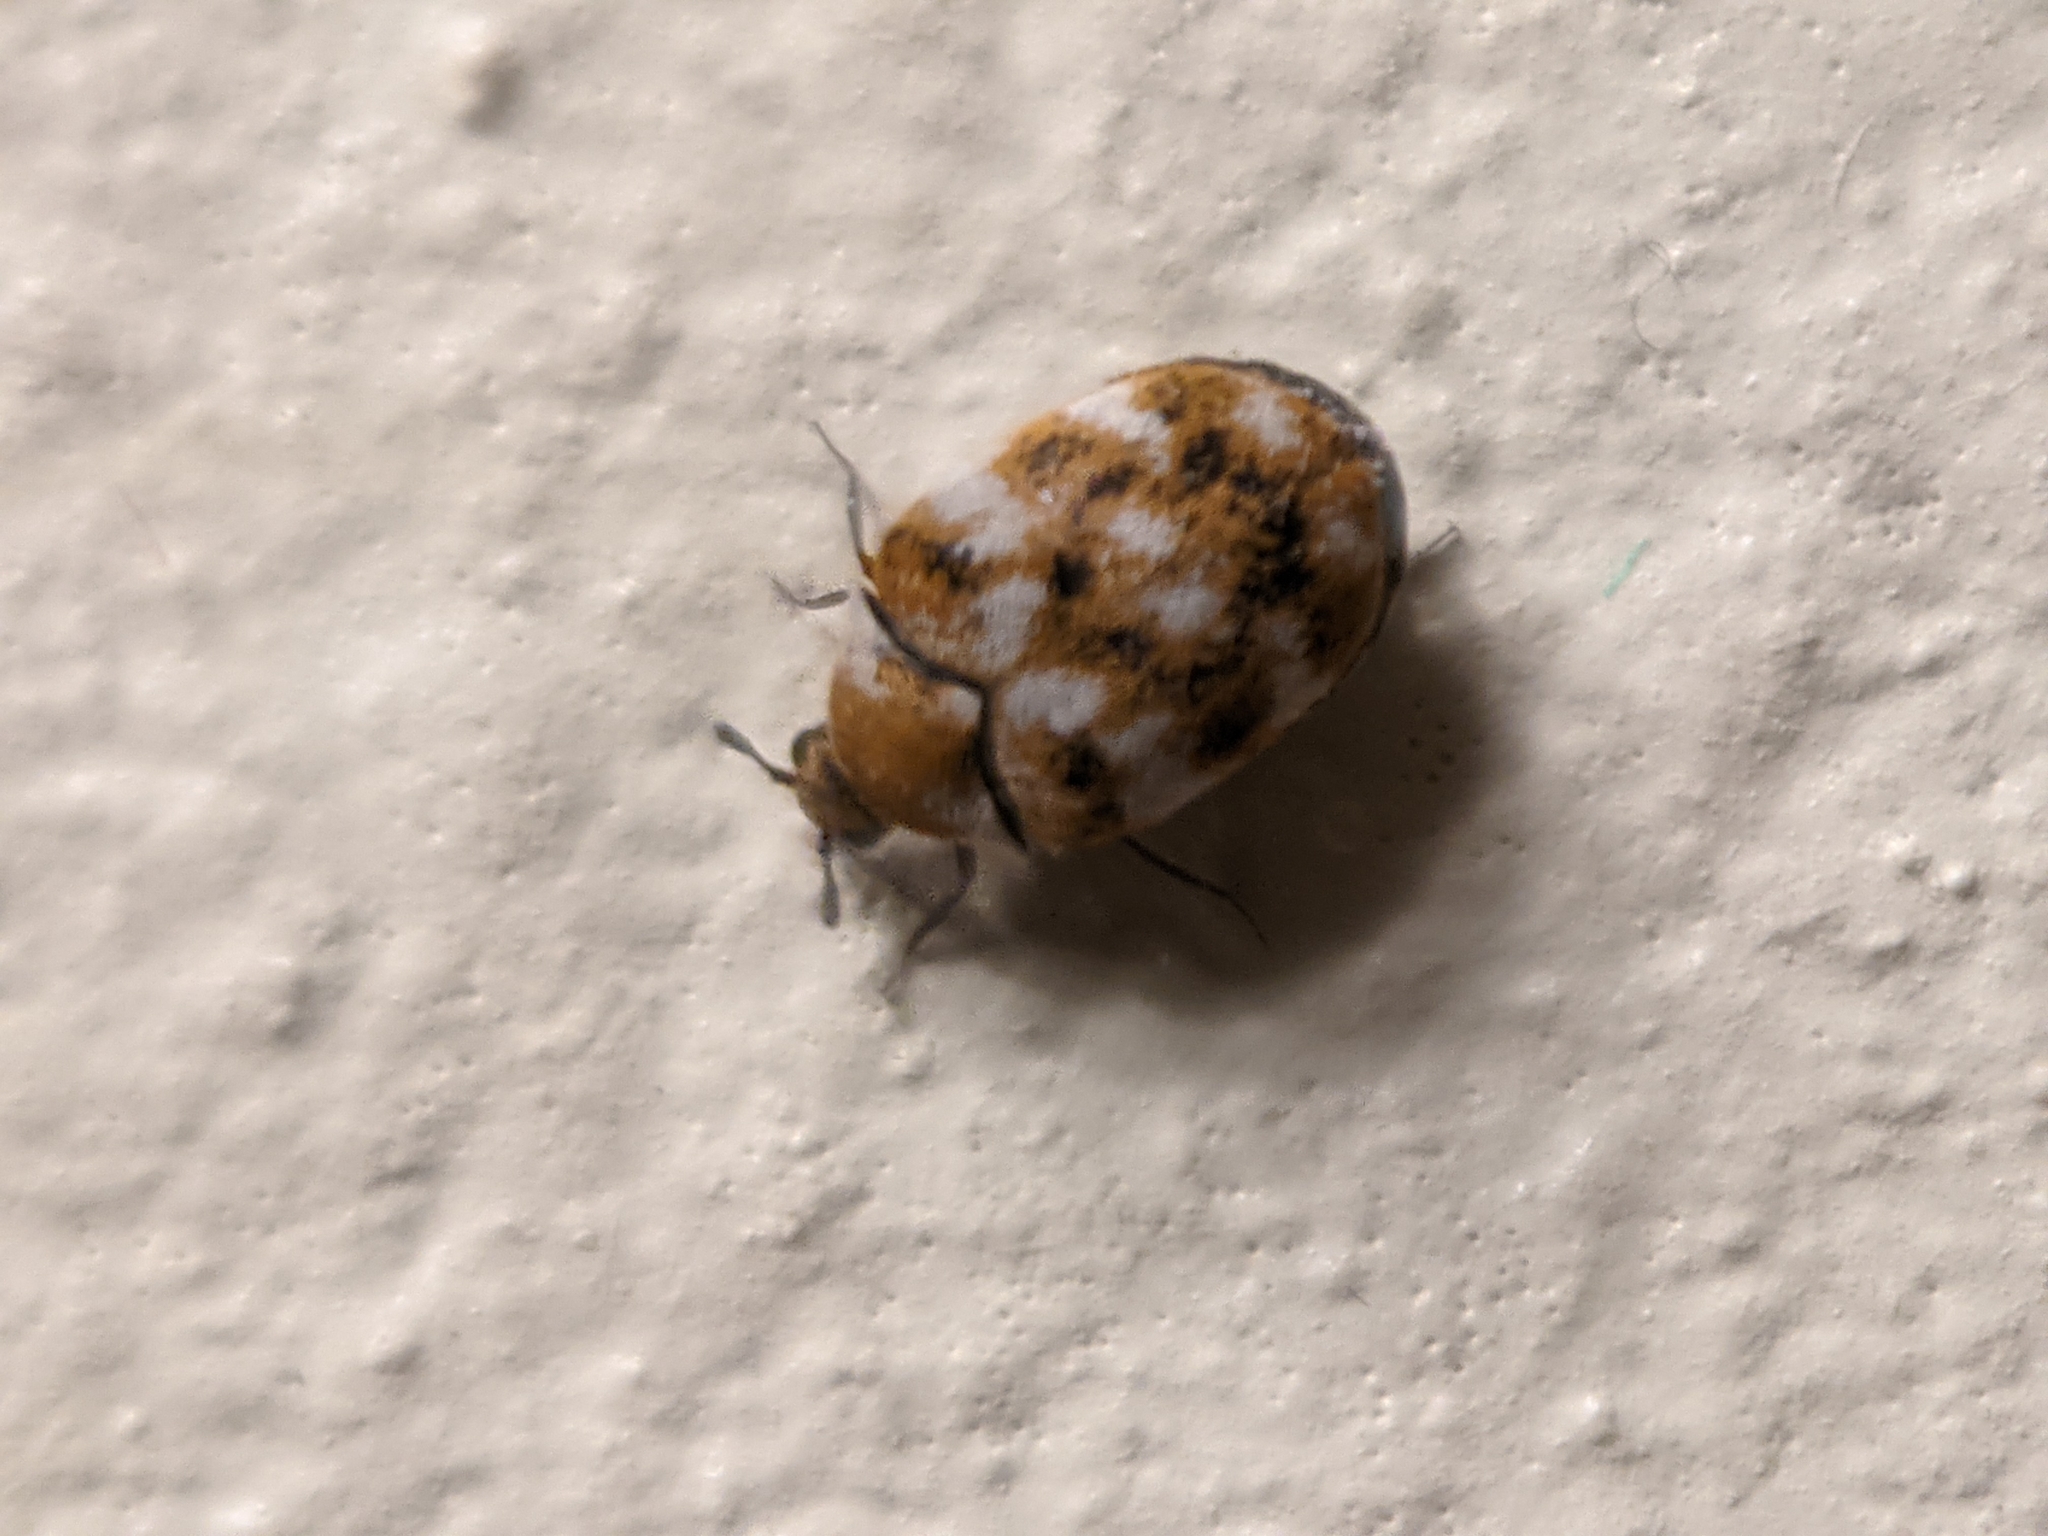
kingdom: Animalia
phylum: Arthropoda
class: Insecta
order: Coleoptera
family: Dermestidae
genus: Anthrenus
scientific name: Anthrenus verbasci
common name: Varied carpet beetle
